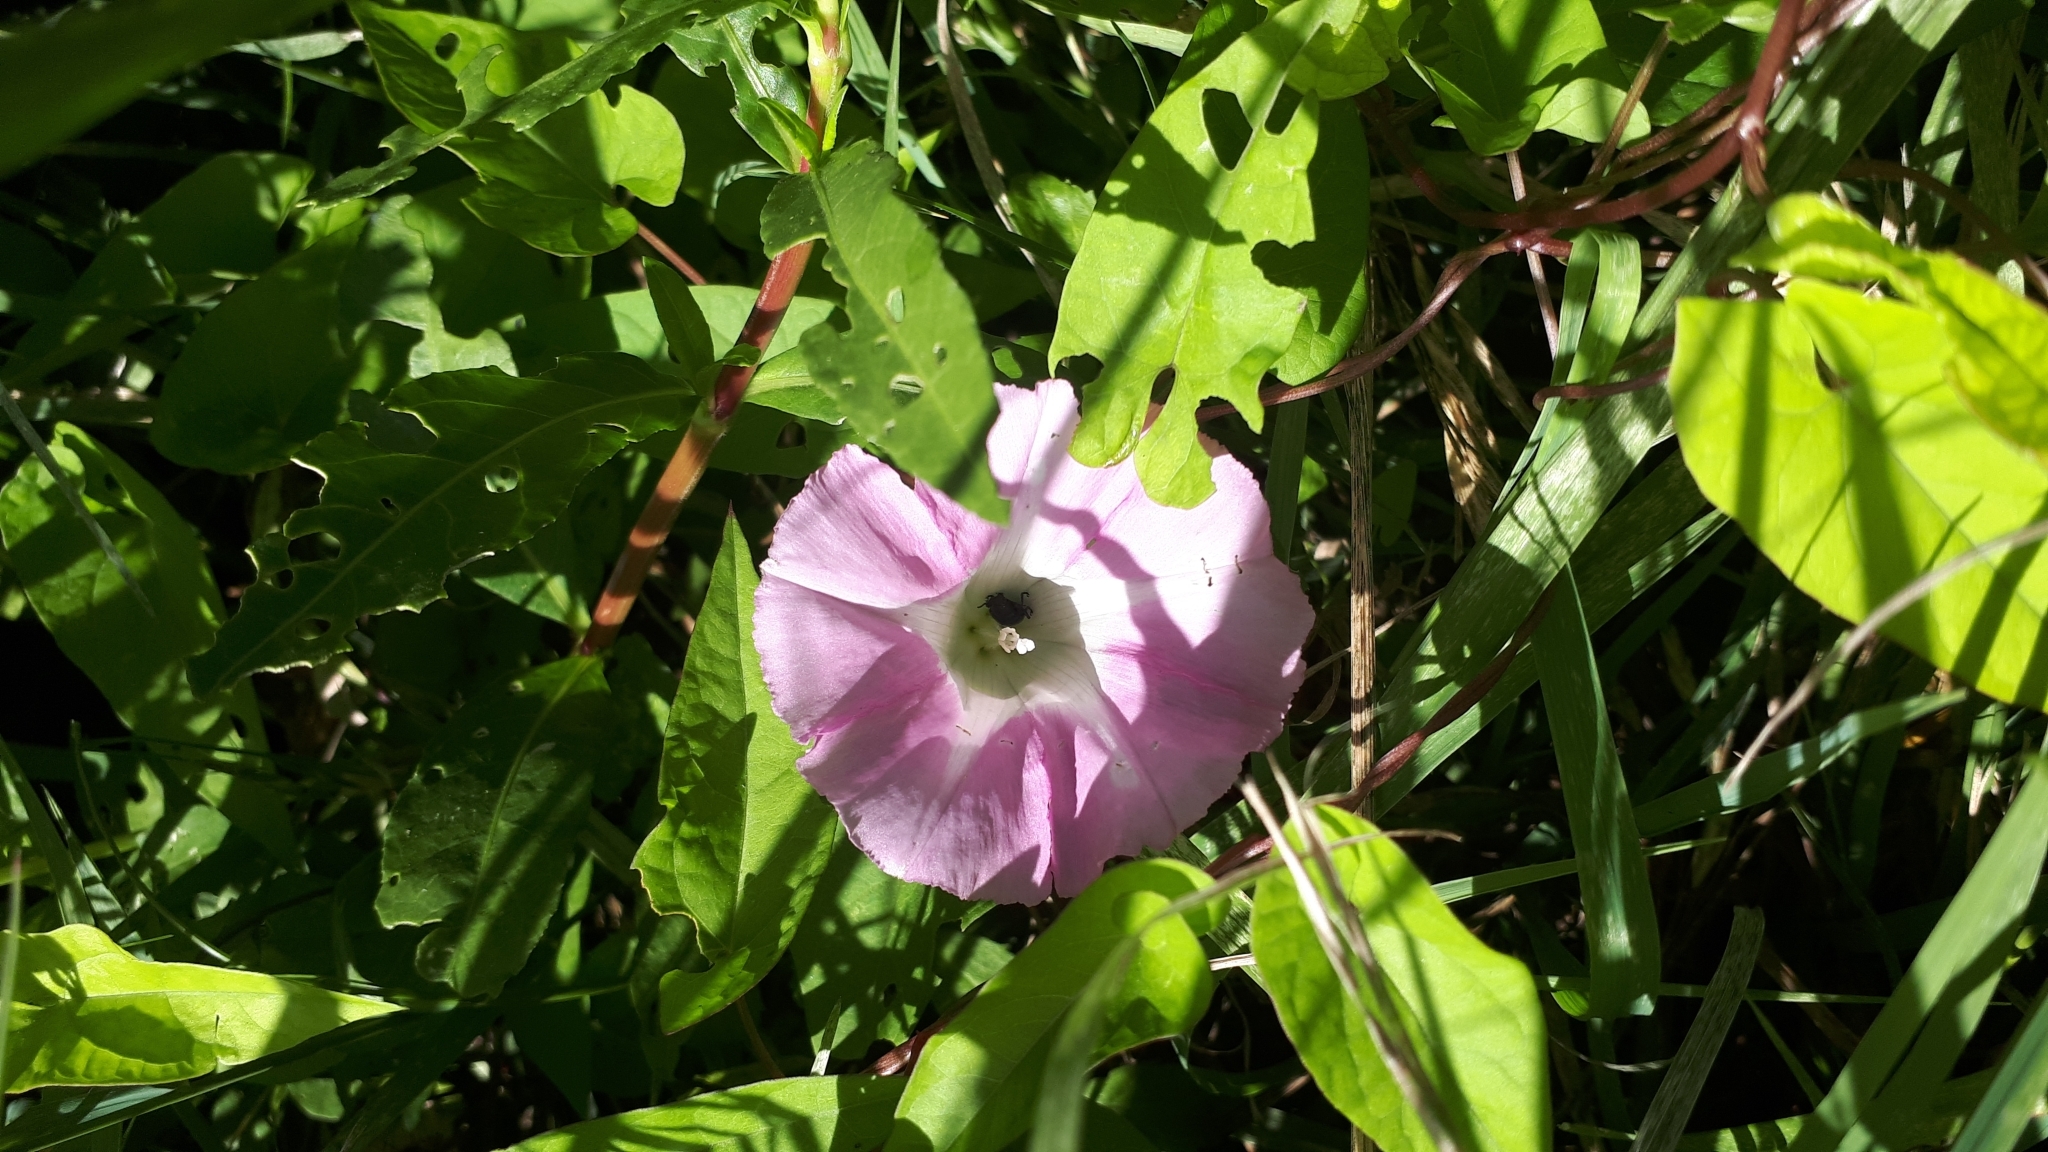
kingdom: Plantae
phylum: Tracheophyta
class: Magnoliopsida
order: Solanales
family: Convolvulaceae
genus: Calystegia
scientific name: Calystegia sepium
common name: Hedge bindweed
